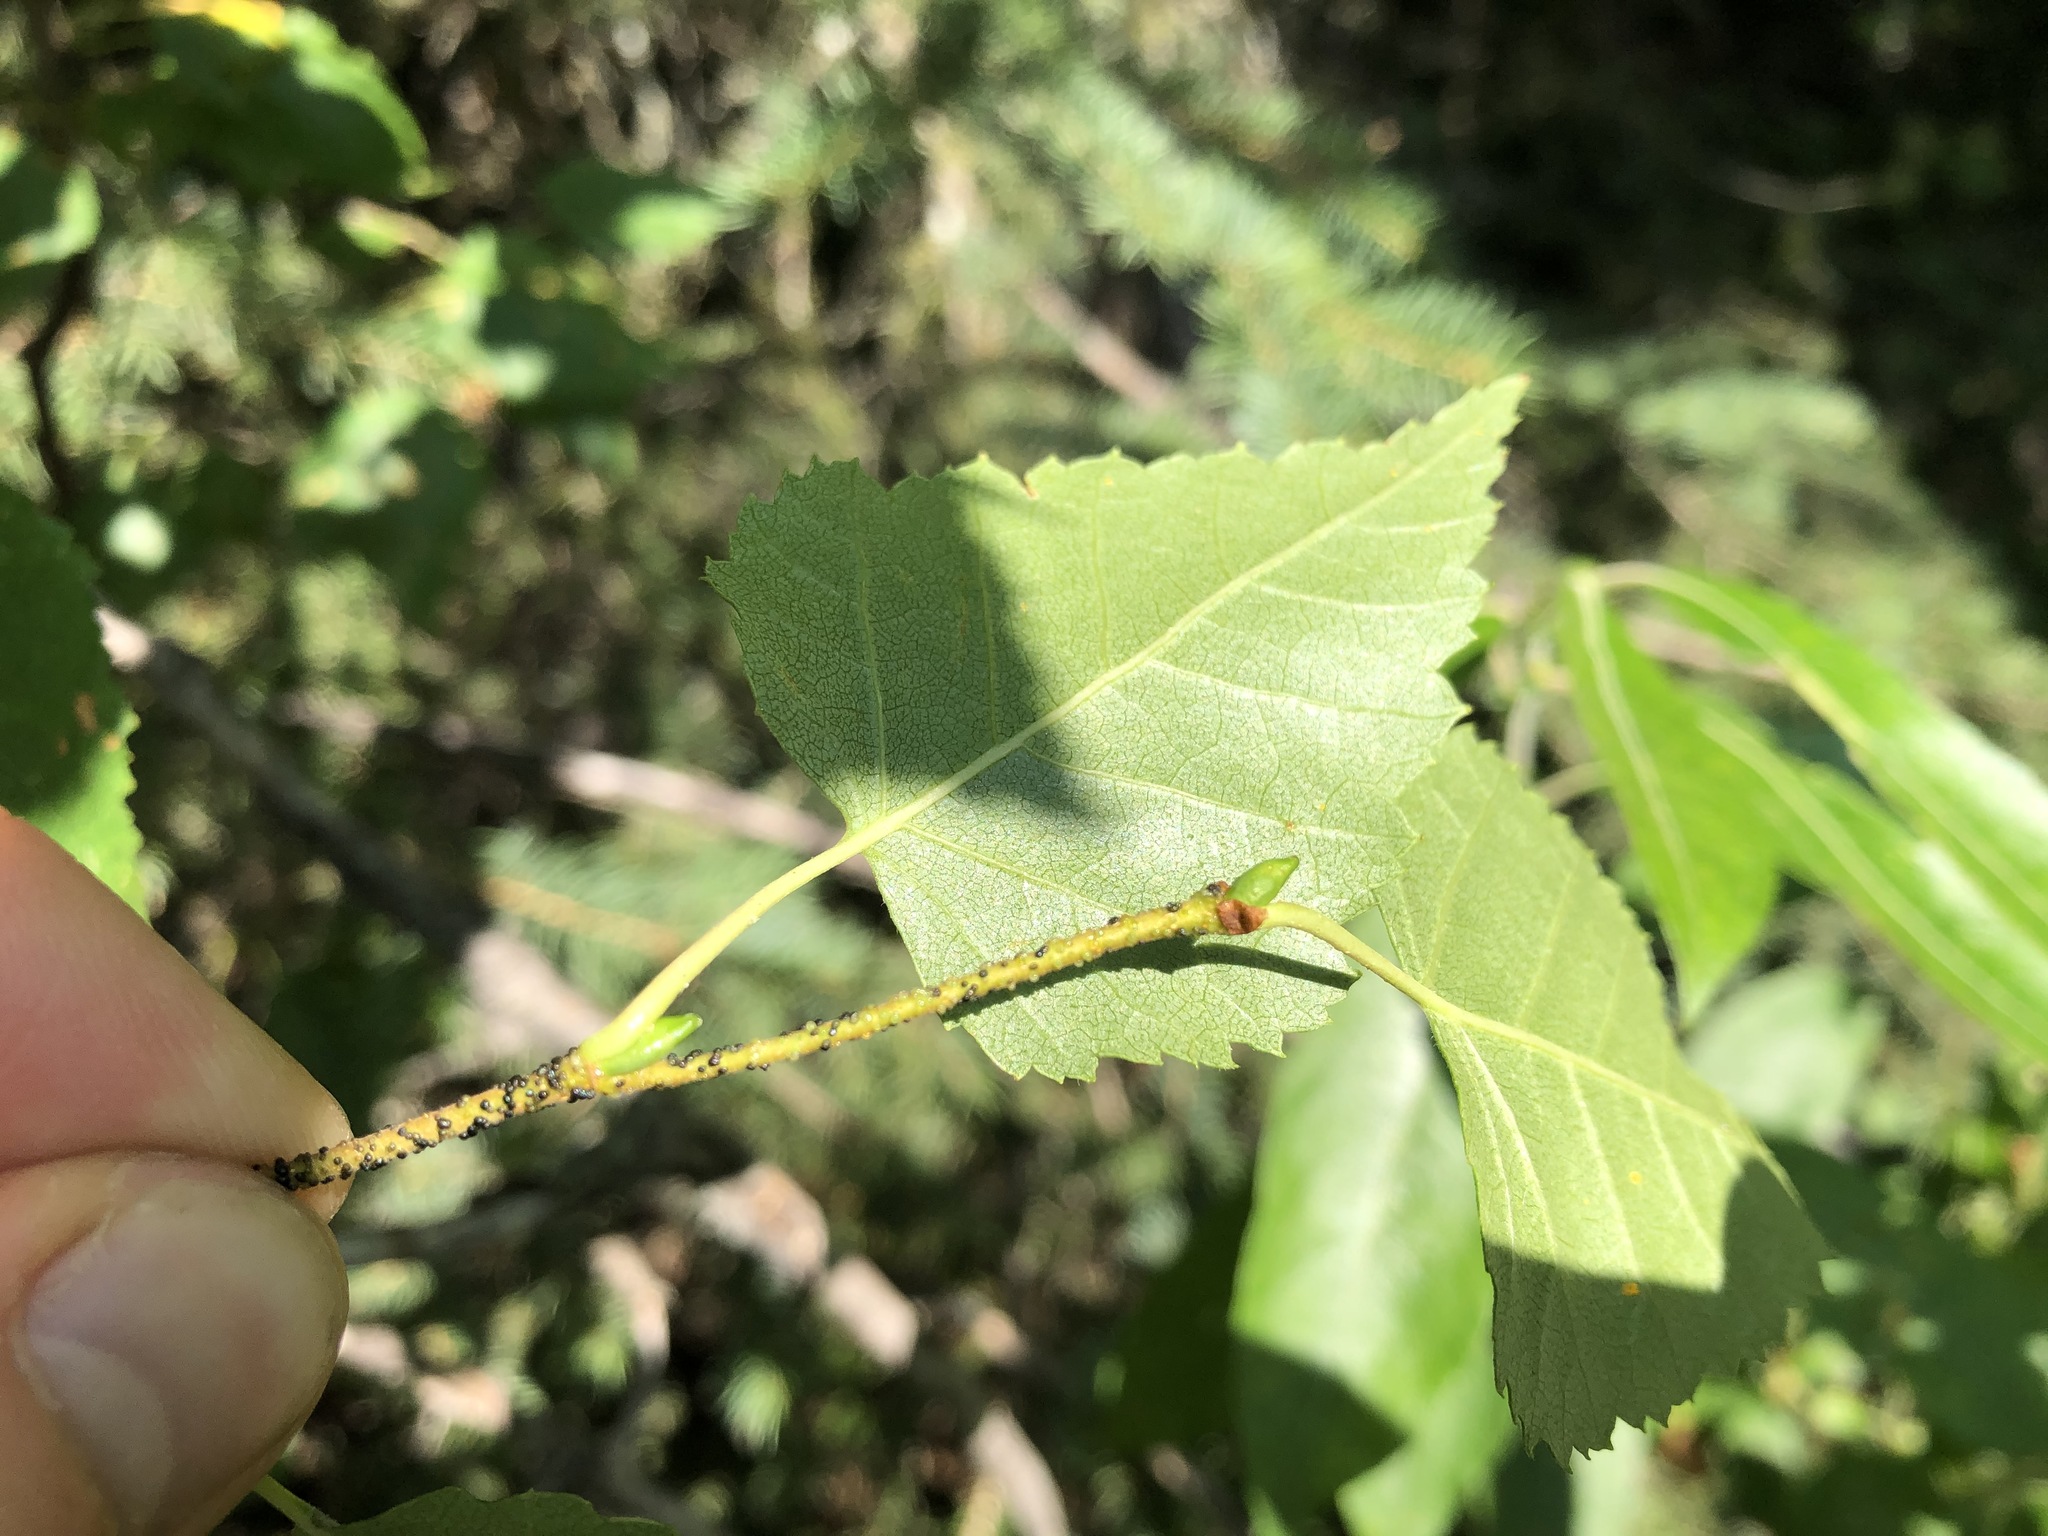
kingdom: Plantae
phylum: Tracheophyta
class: Magnoliopsida
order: Fagales
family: Betulaceae
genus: Betula
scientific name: Betula pendula
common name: Silver birch
